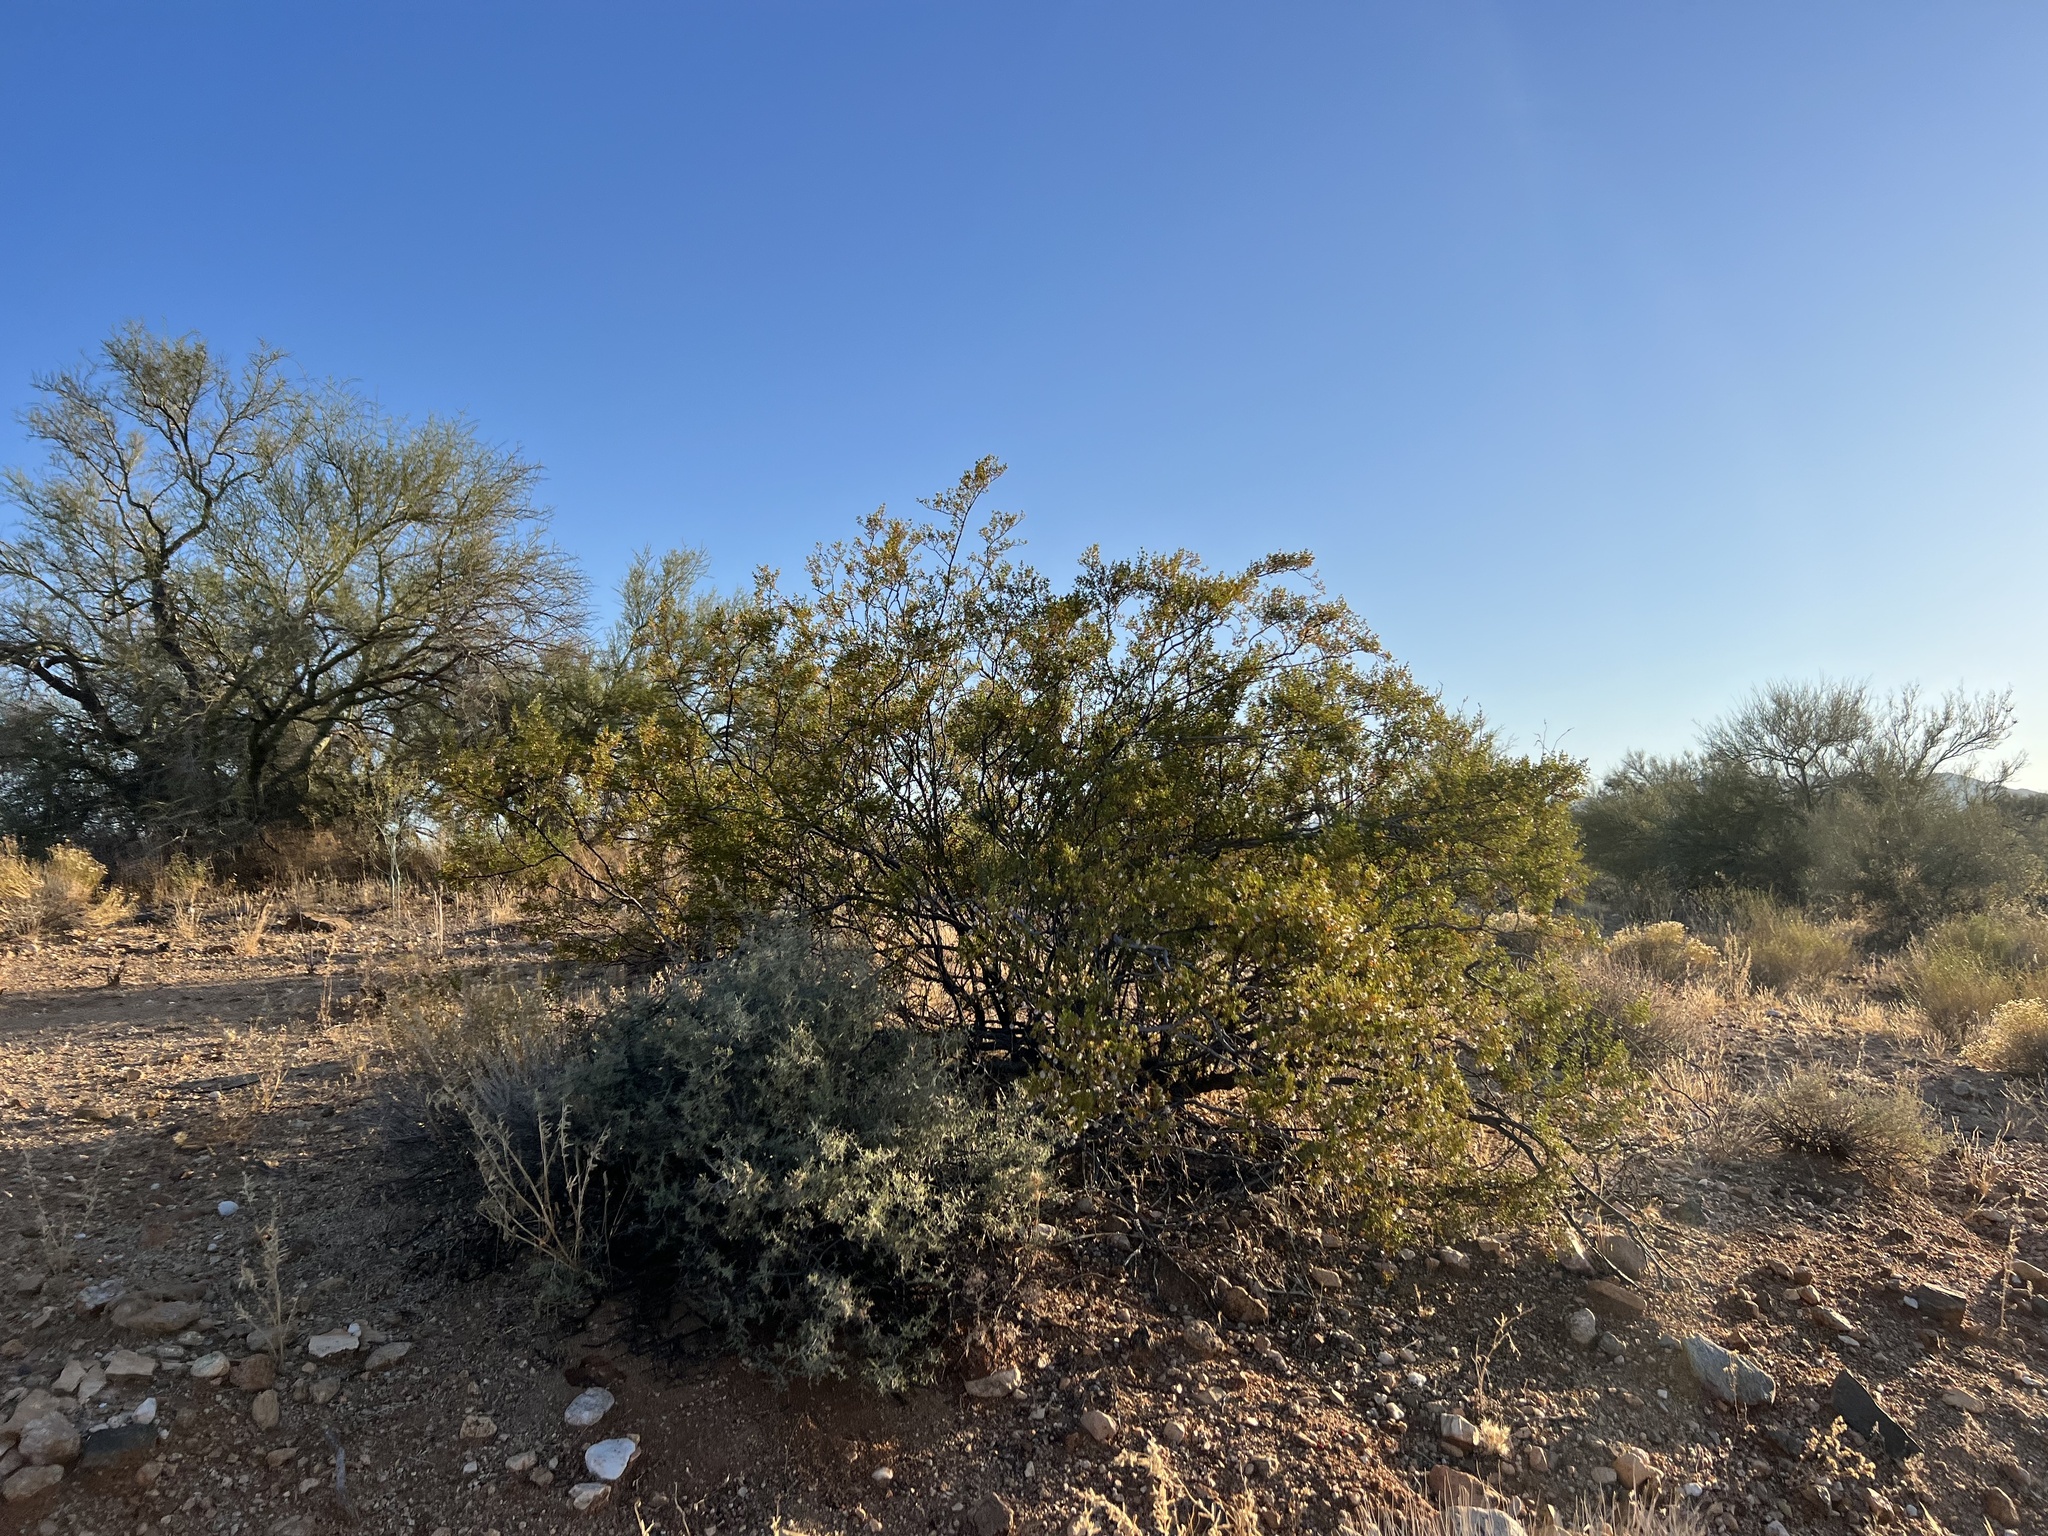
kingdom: Plantae
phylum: Tracheophyta
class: Magnoliopsida
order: Zygophyllales
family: Zygophyllaceae
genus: Larrea
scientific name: Larrea tridentata
